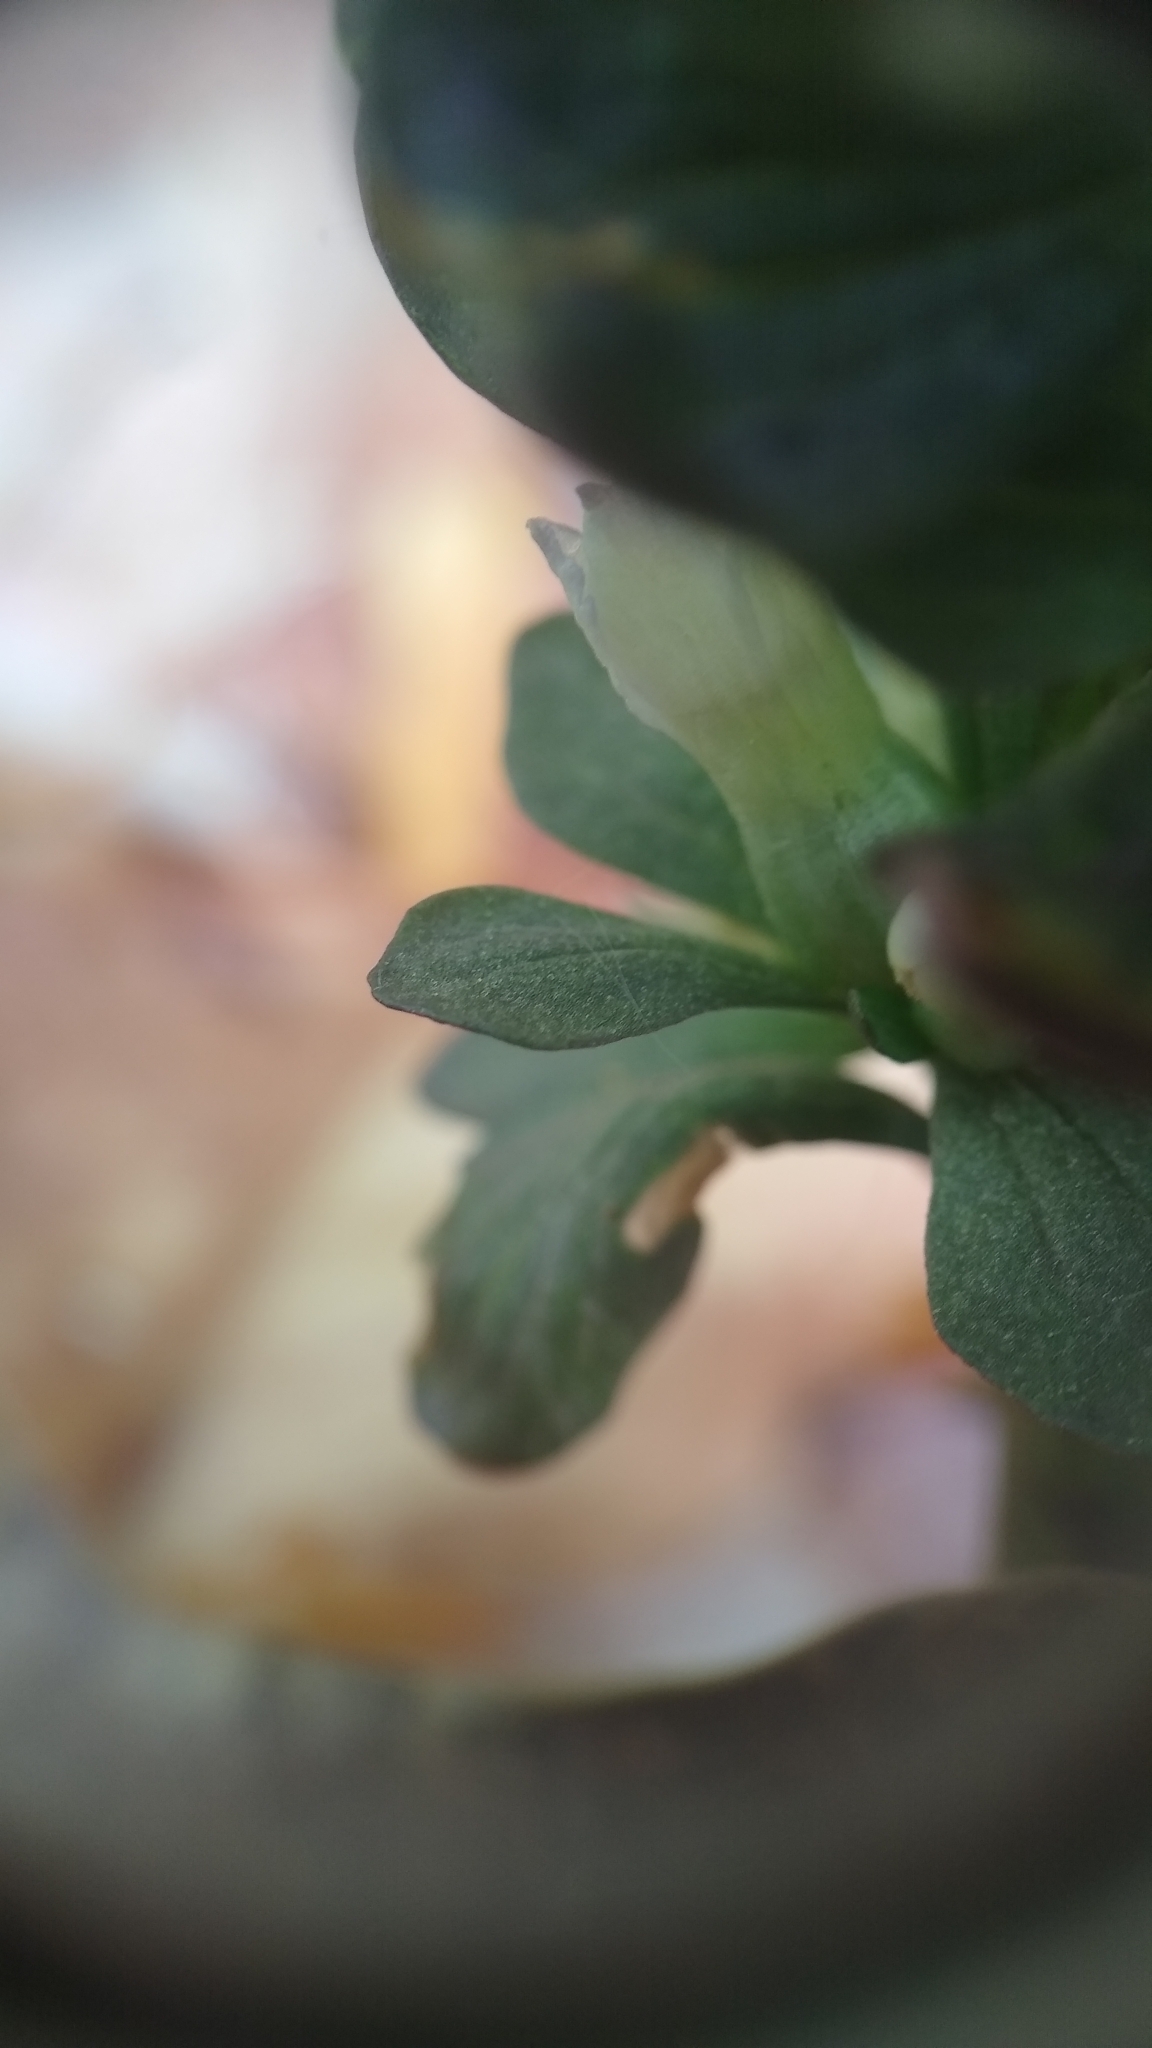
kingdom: Plantae
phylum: Tracheophyta
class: Magnoliopsida
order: Gentianales
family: Gentianaceae
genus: Obolaria
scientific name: Obolaria virginica
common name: Pennywort
